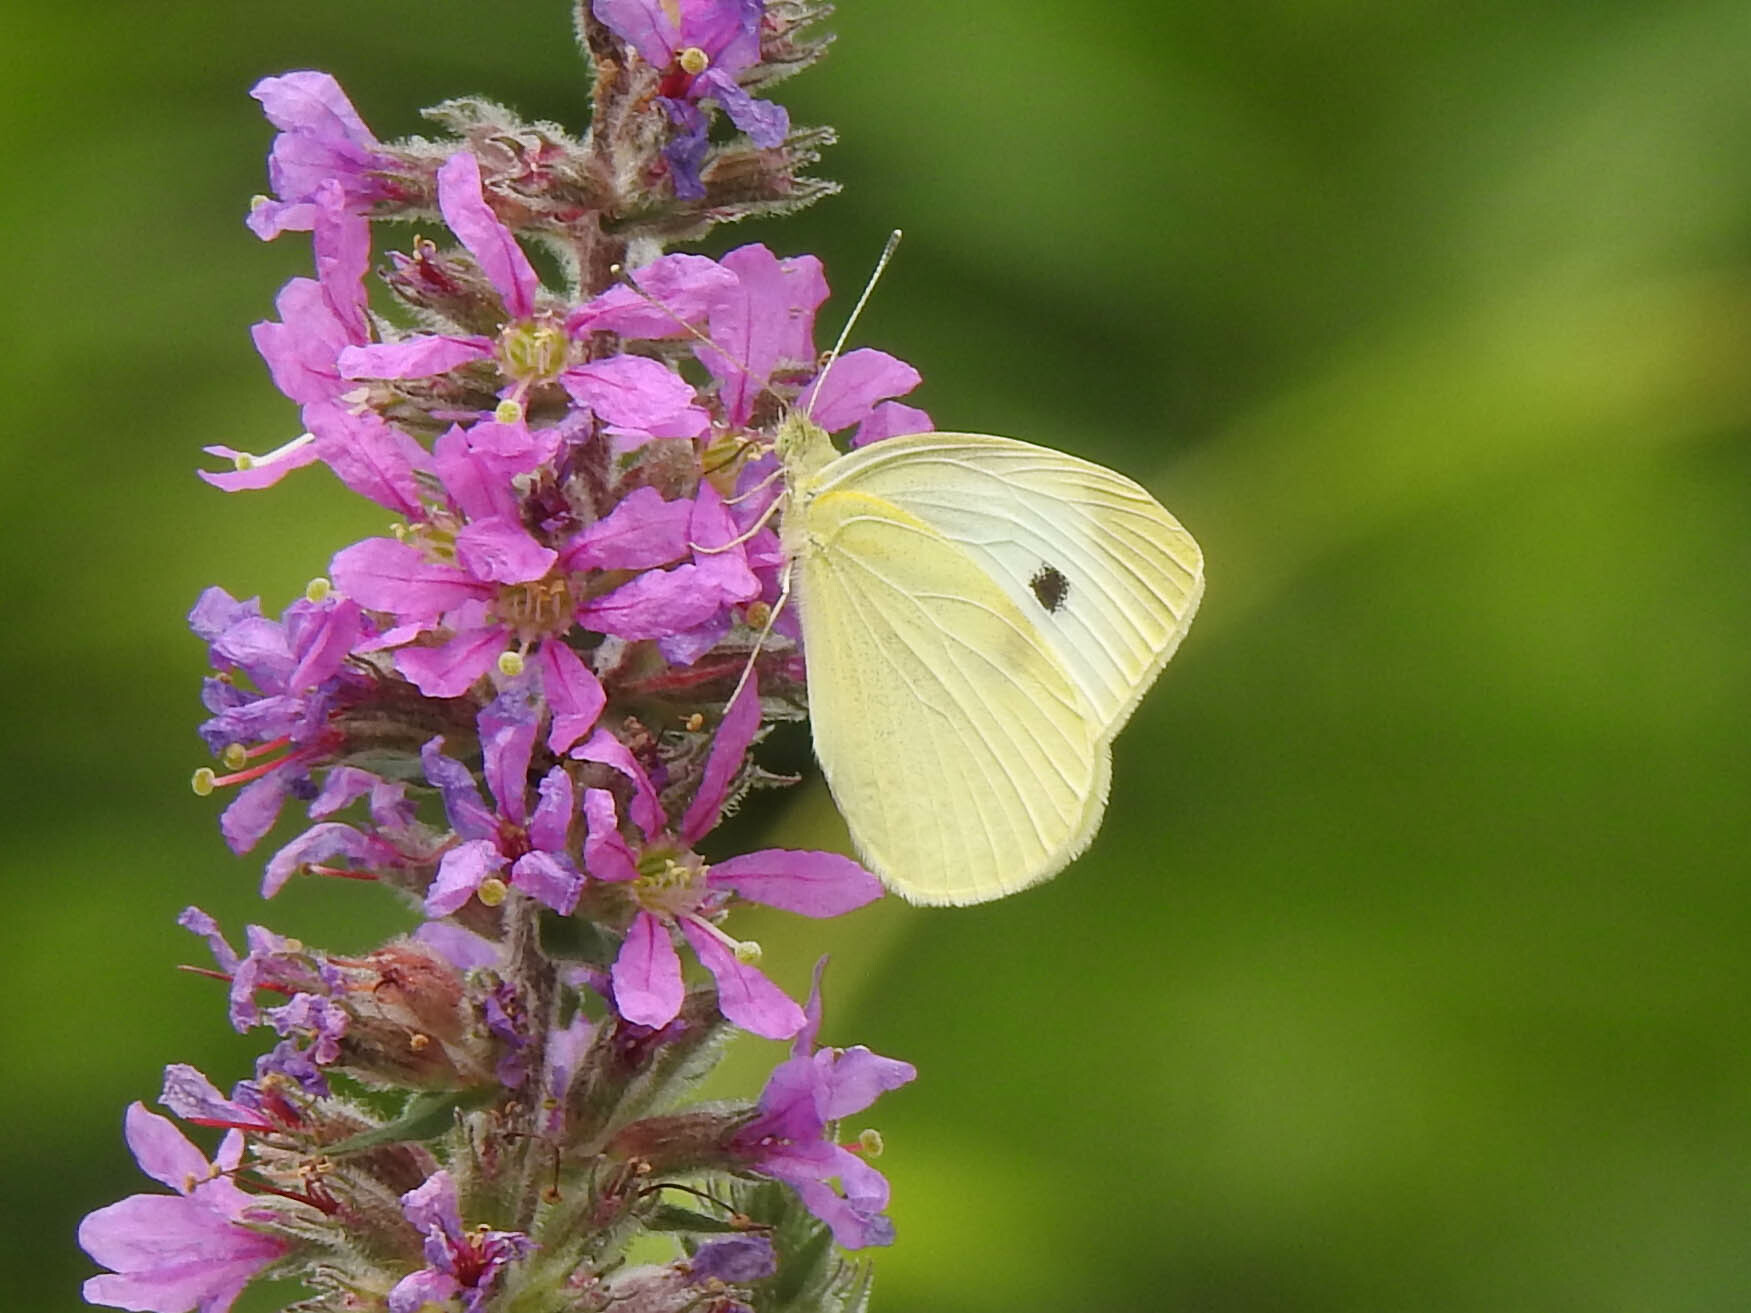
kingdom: Animalia
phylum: Arthropoda
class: Insecta
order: Lepidoptera
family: Pieridae
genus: Pieris
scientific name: Pieris rapae
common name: Small white
